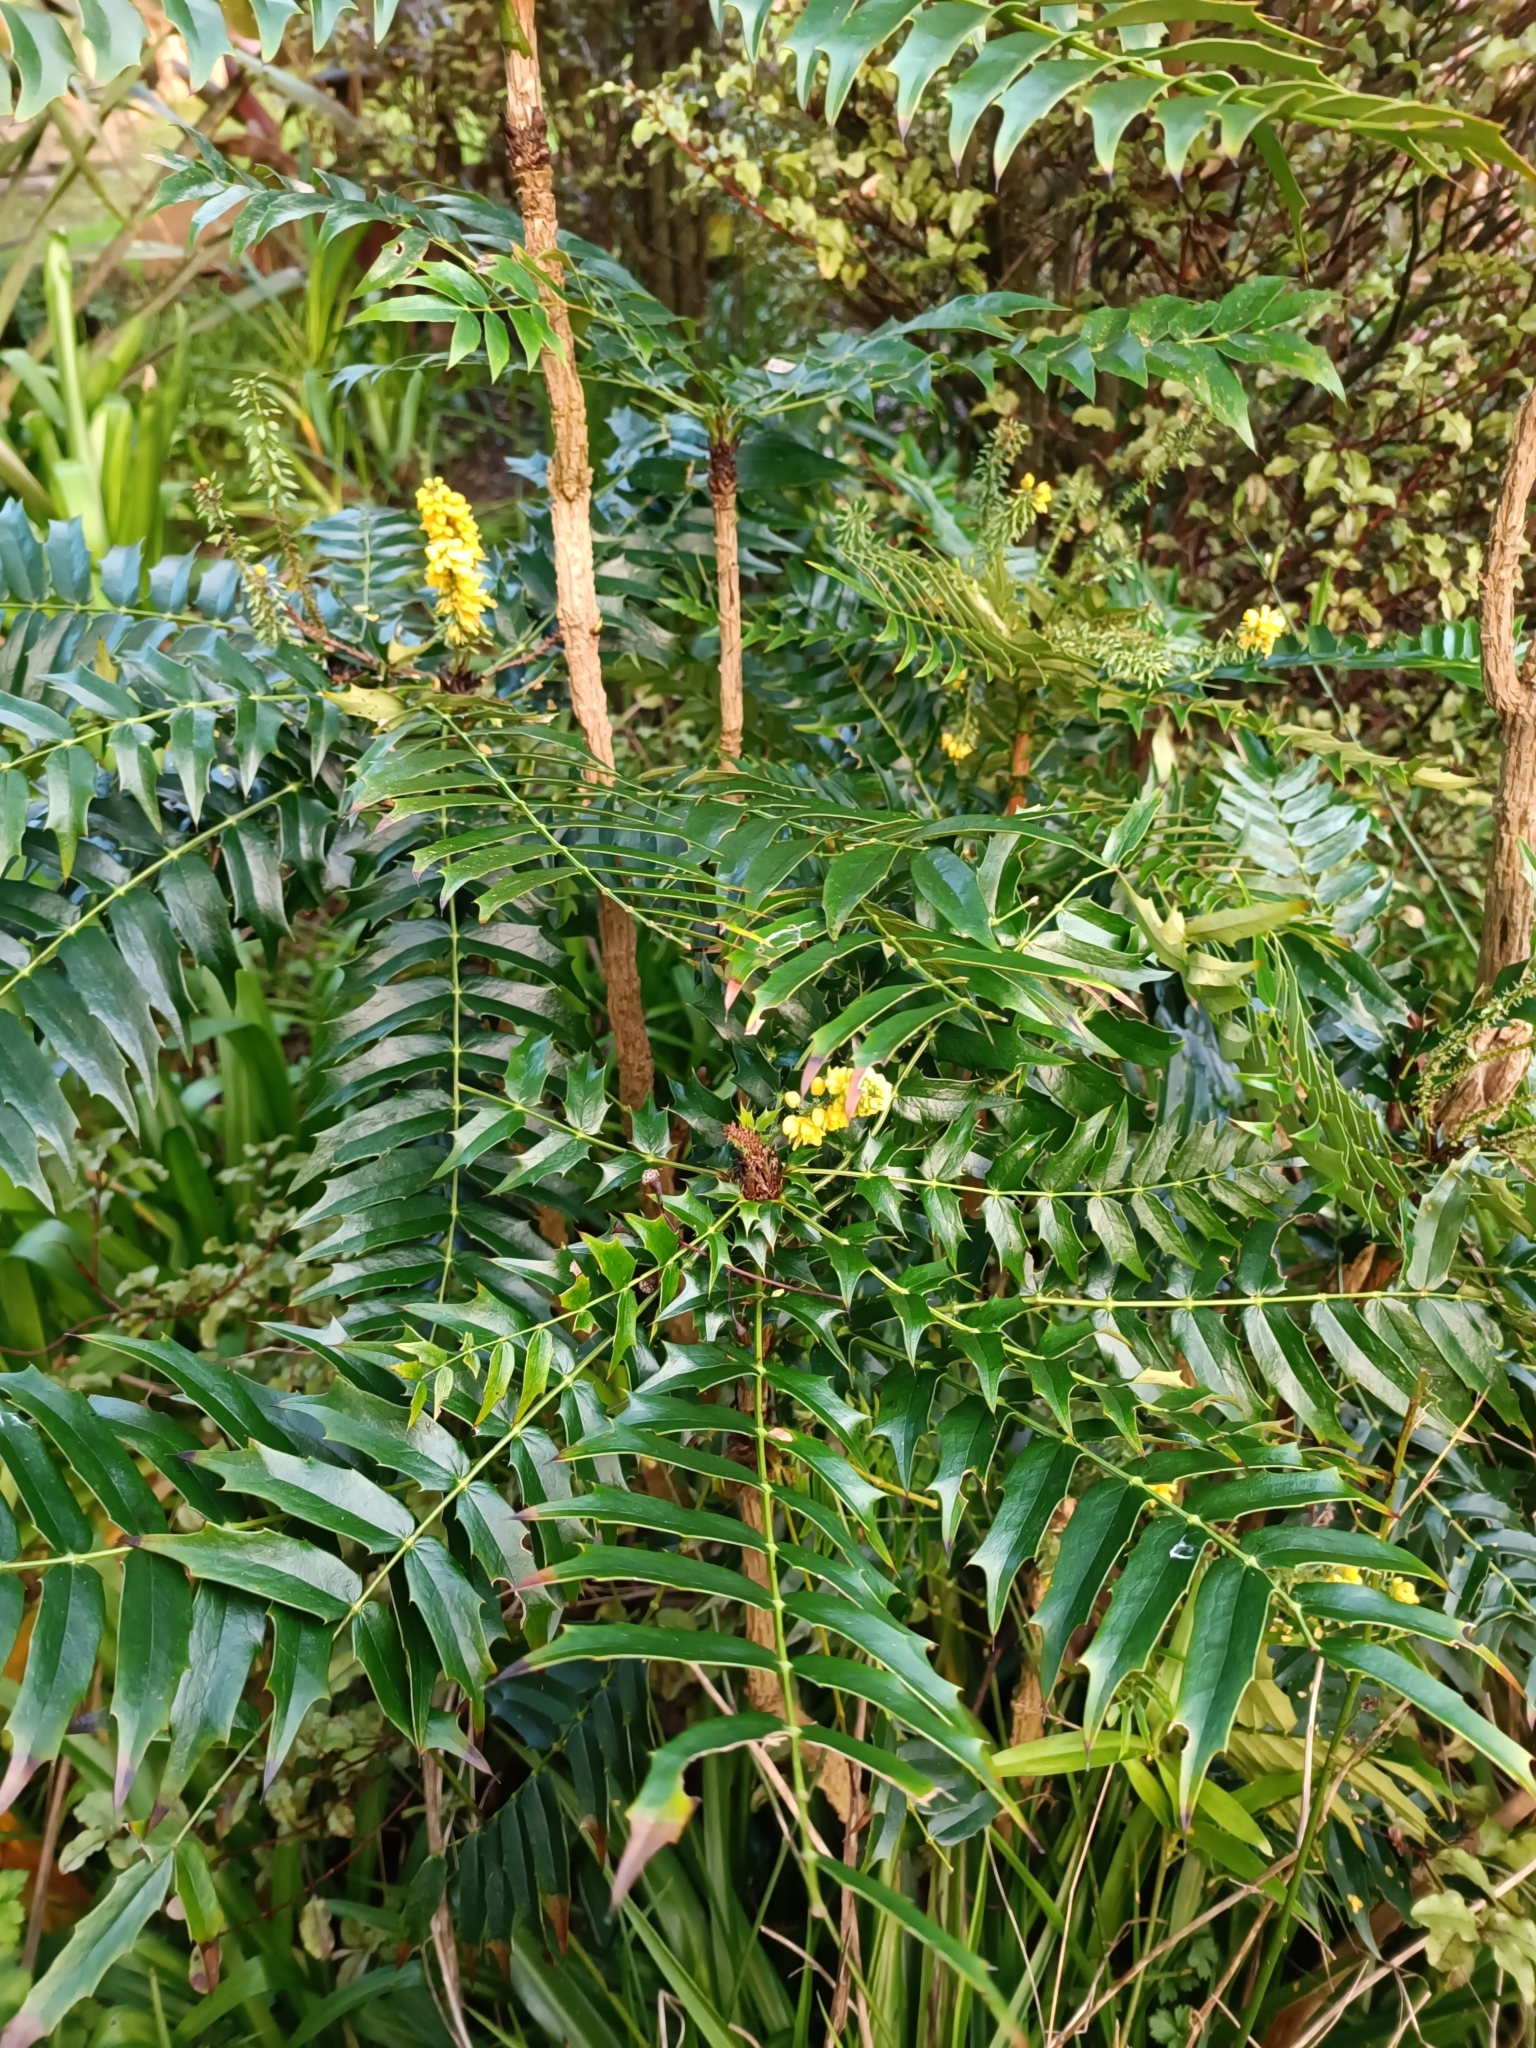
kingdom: Plantae
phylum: Tracheophyta
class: Magnoliopsida
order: Ranunculales
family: Berberidaceae
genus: Mahonia
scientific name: Mahonia oiwakensis
